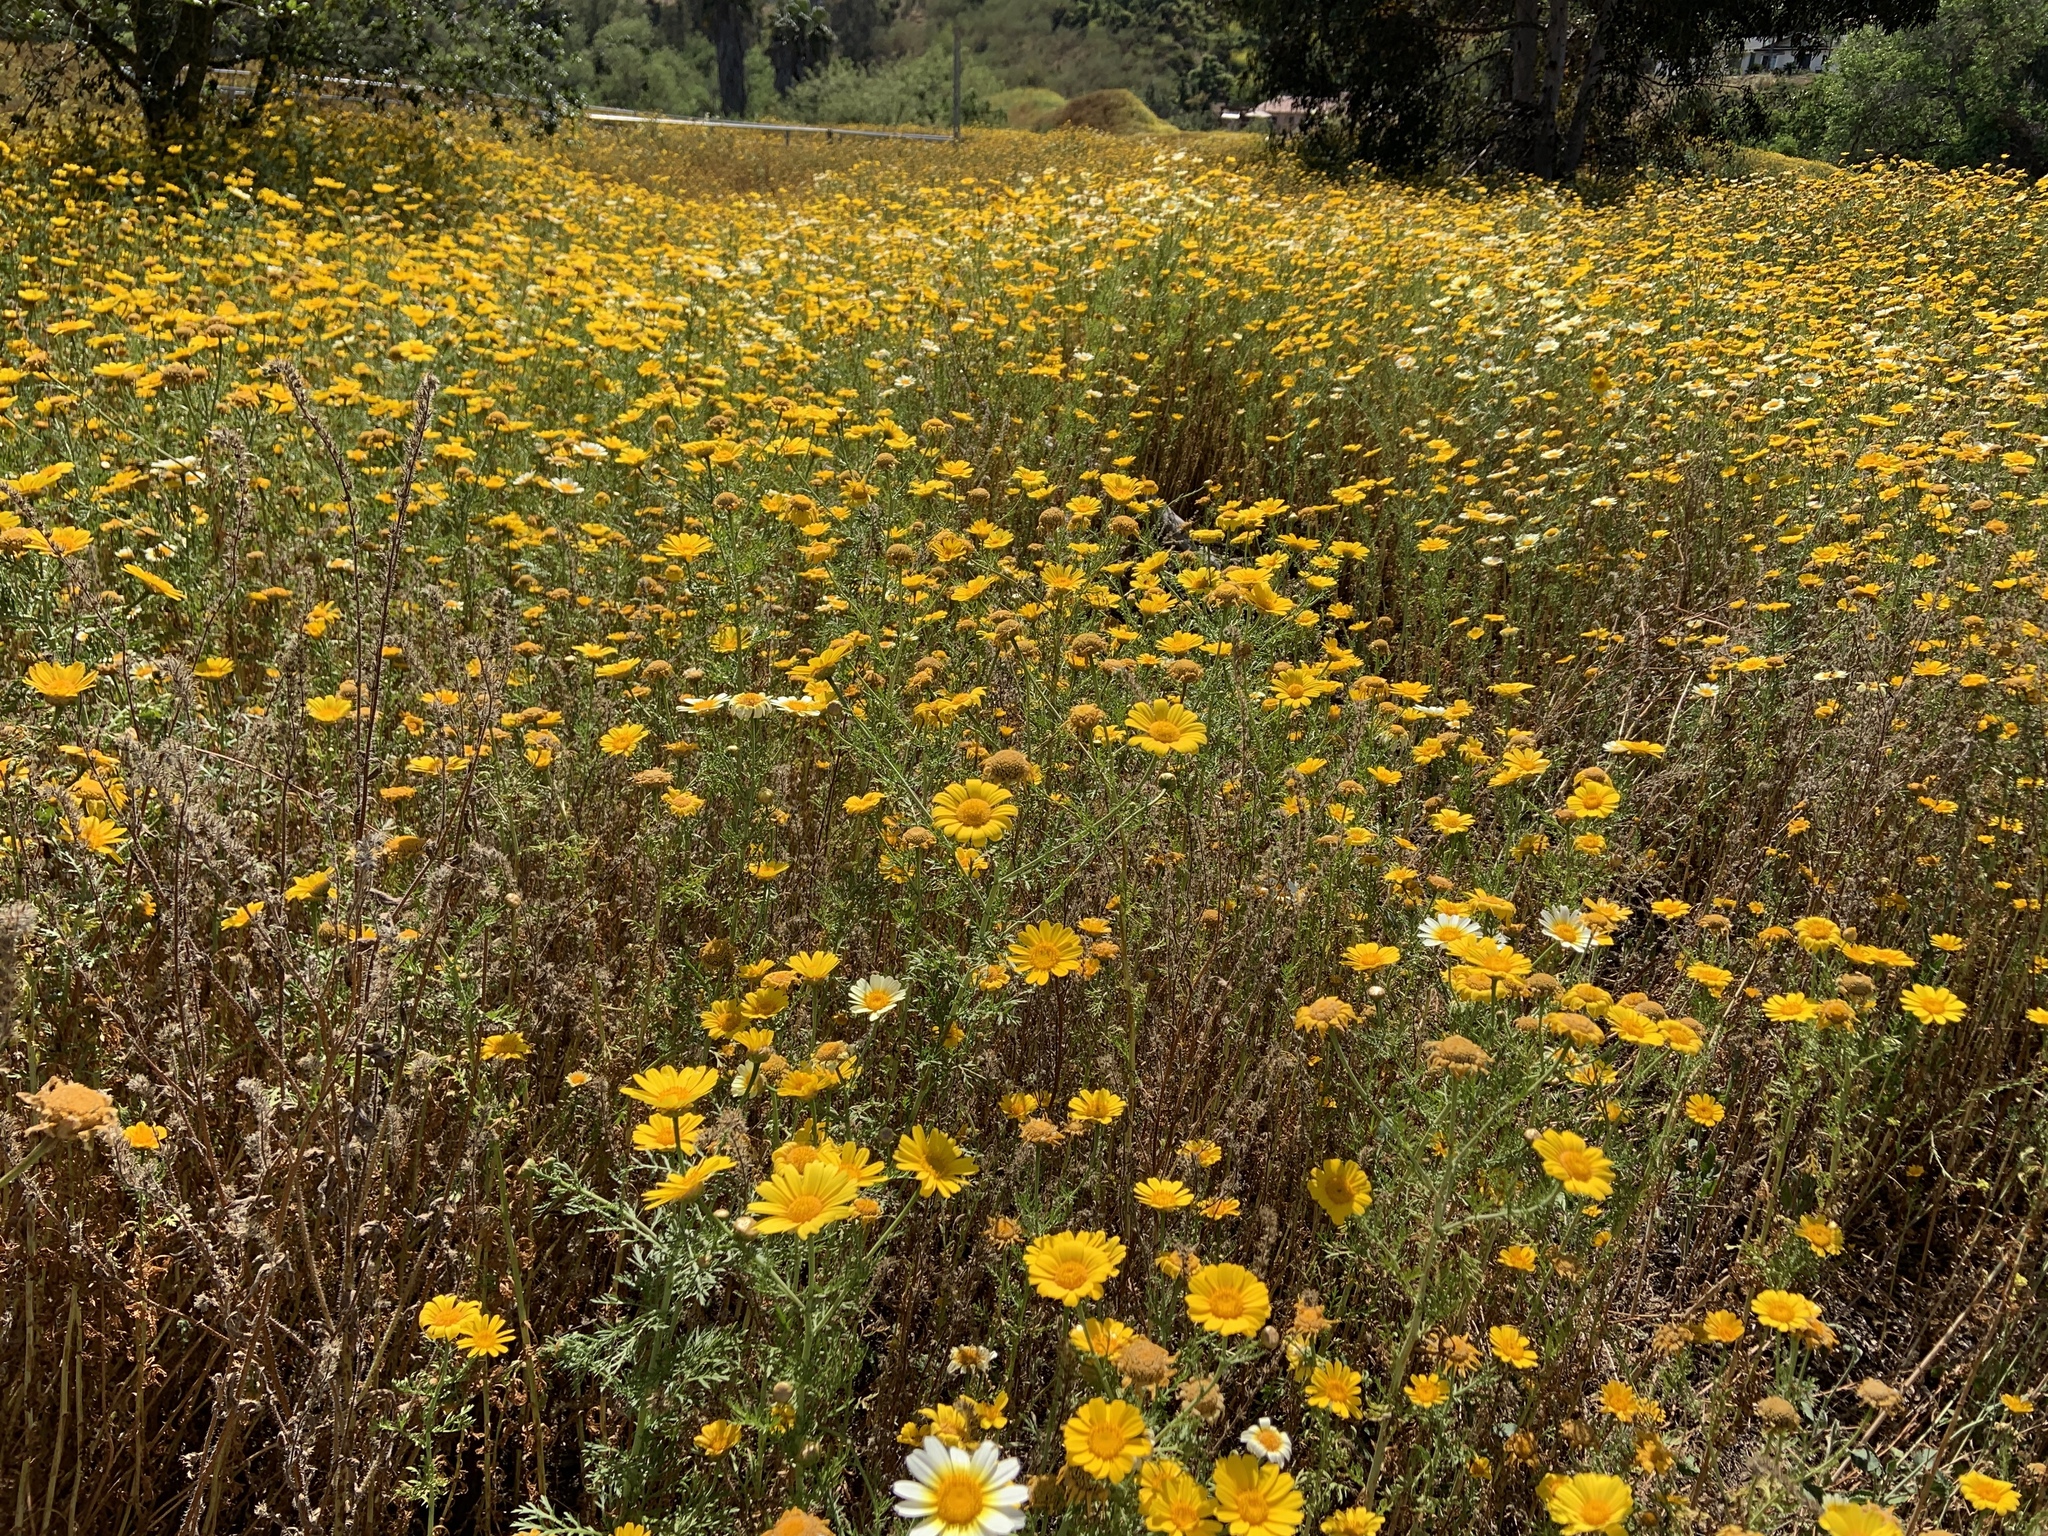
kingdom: Plantae
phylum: Tracheophyta
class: Magnoliopsida
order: Asterales
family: Asteraceae
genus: Glebionis
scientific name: Glebionis coronaria
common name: Crowndaisy
